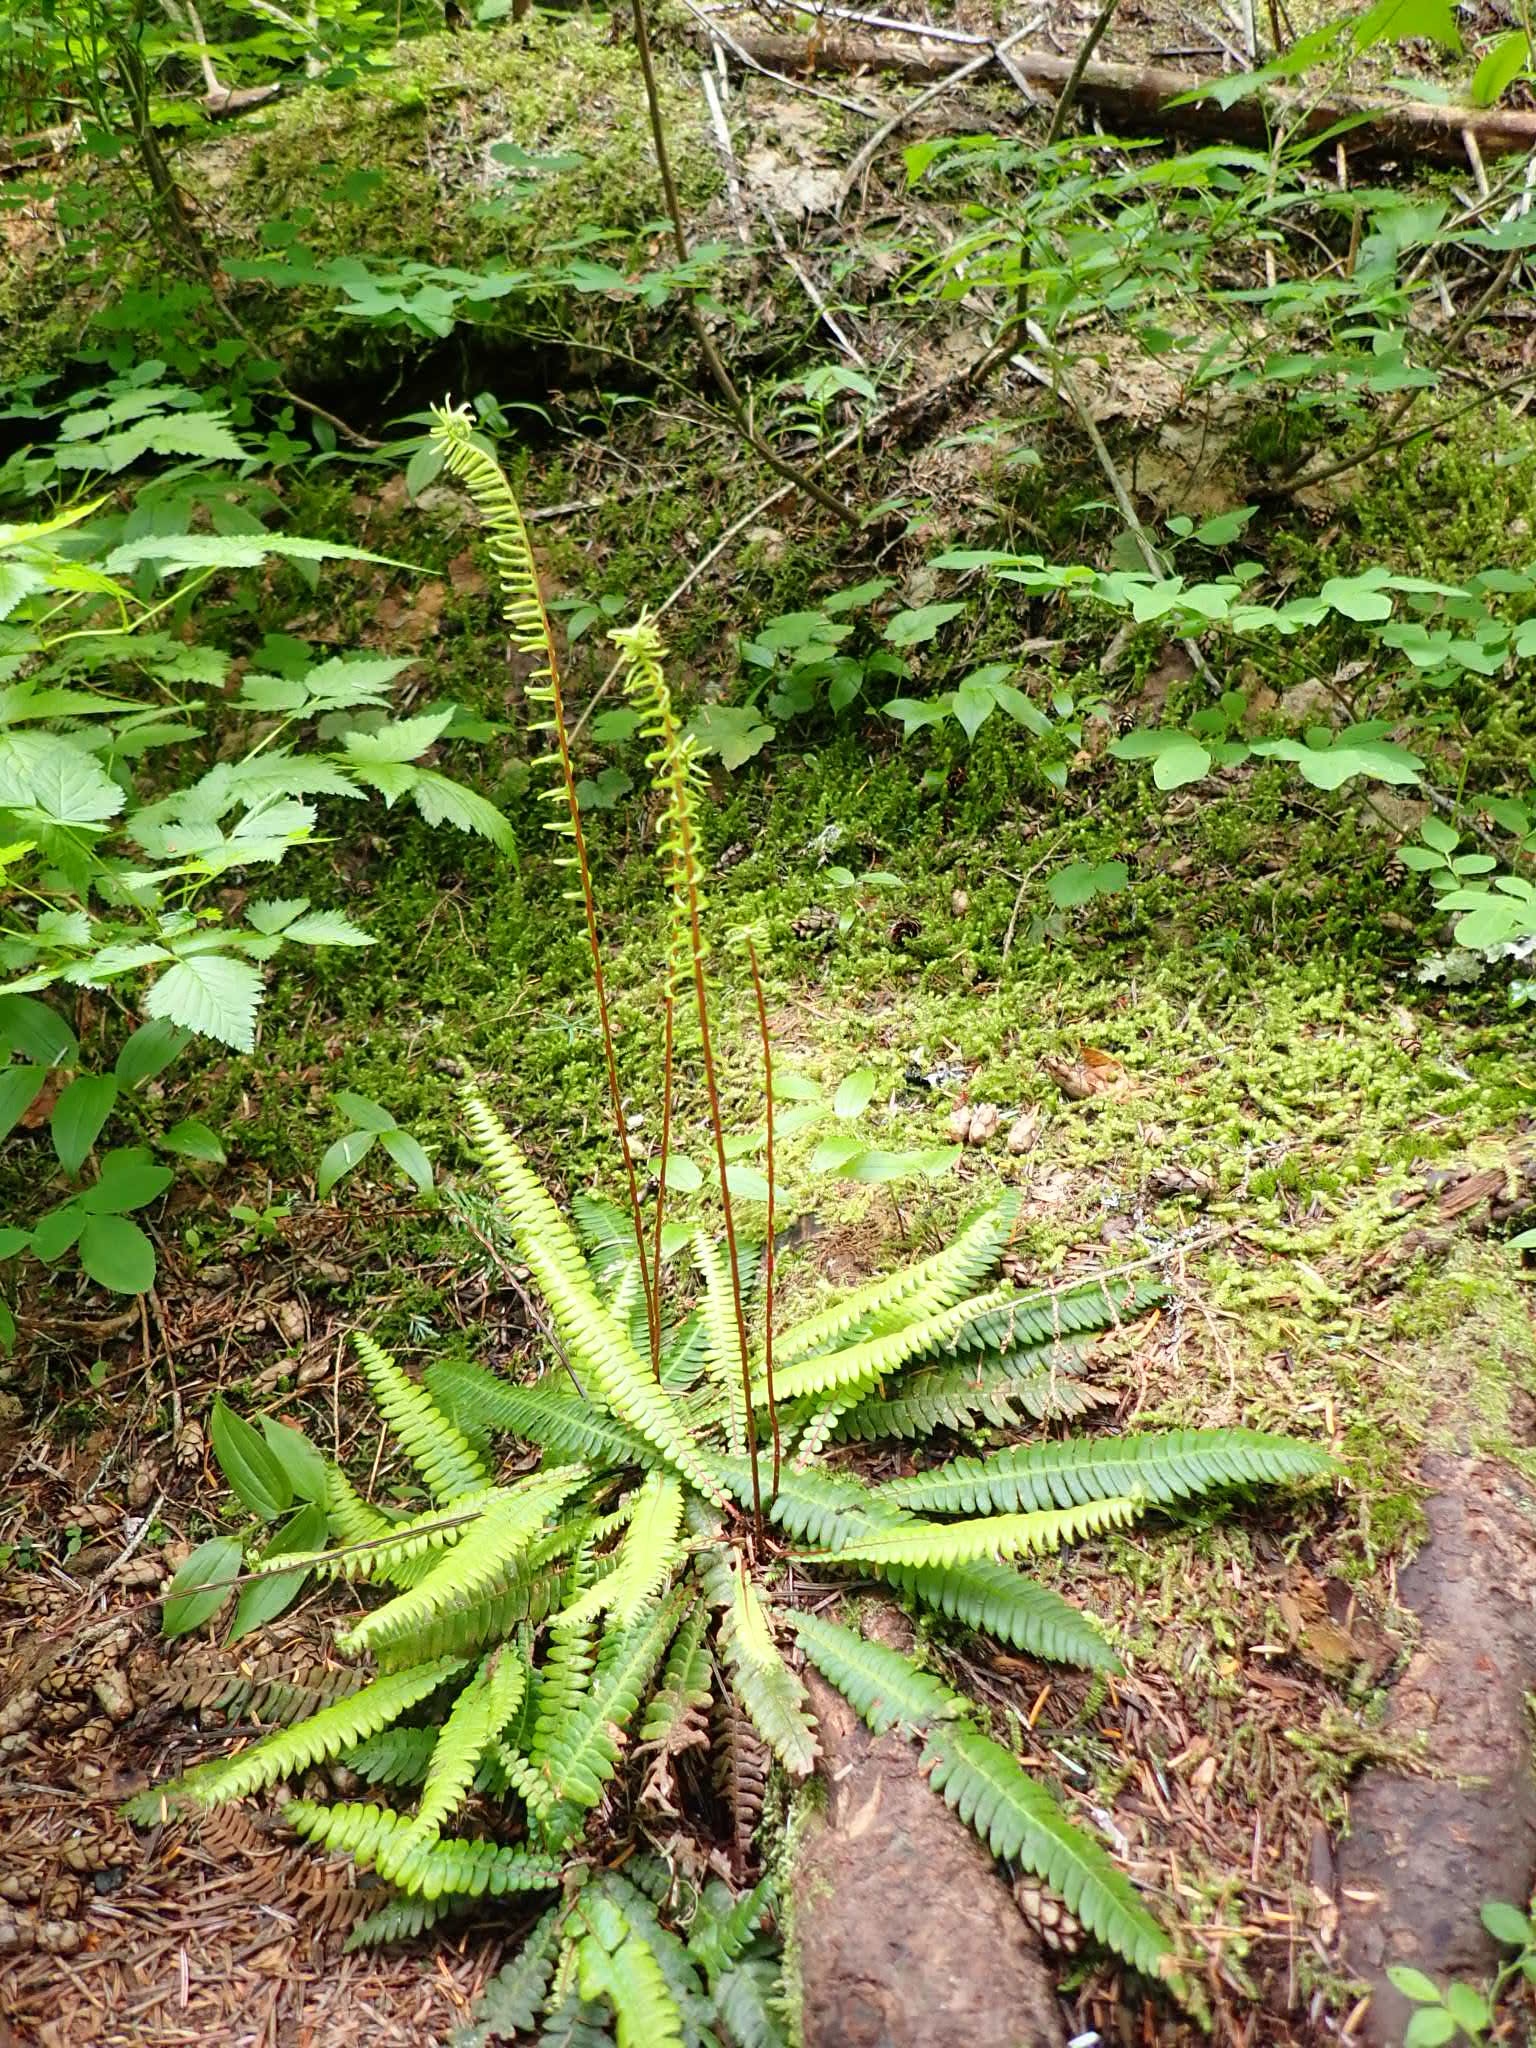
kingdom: Plantae
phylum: Tracheophyta
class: Polypodiopsida
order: Polypodiales
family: Blechnaceae
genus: Struthiopteris
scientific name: Struthiopteris spicant
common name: Deer fern
